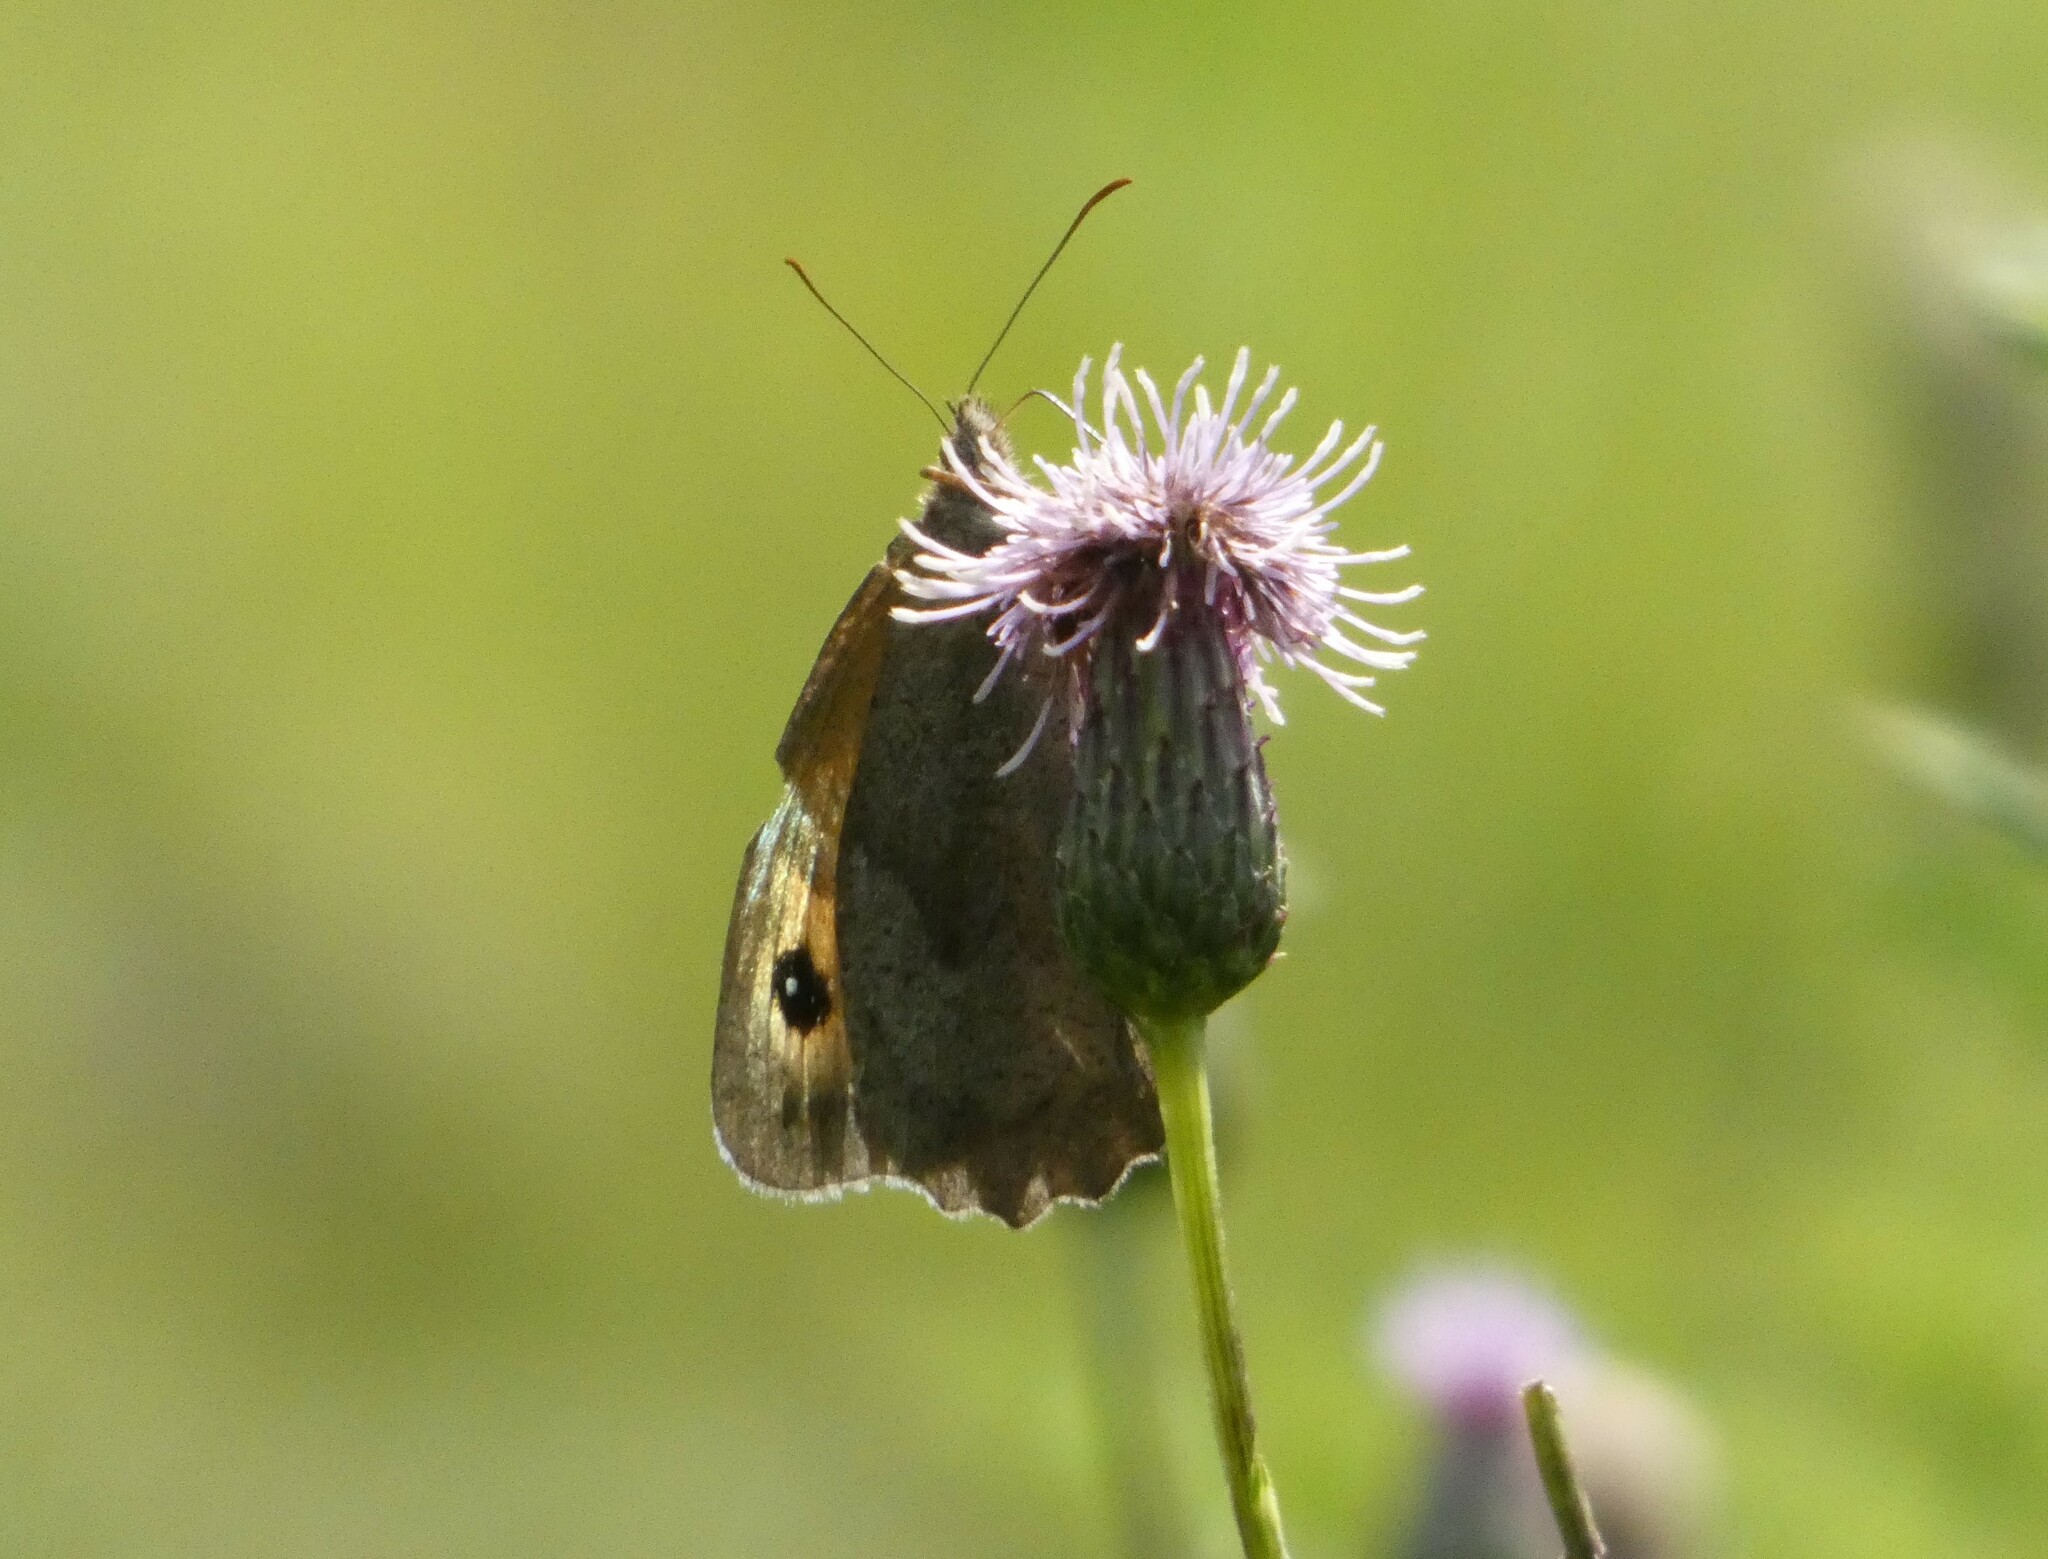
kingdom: Animalia
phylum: Arthropoda
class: Insecta
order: Lepidoptera
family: Nymphalidae
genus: Maniola
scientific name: Maniola jurtina
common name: Meadow brown
